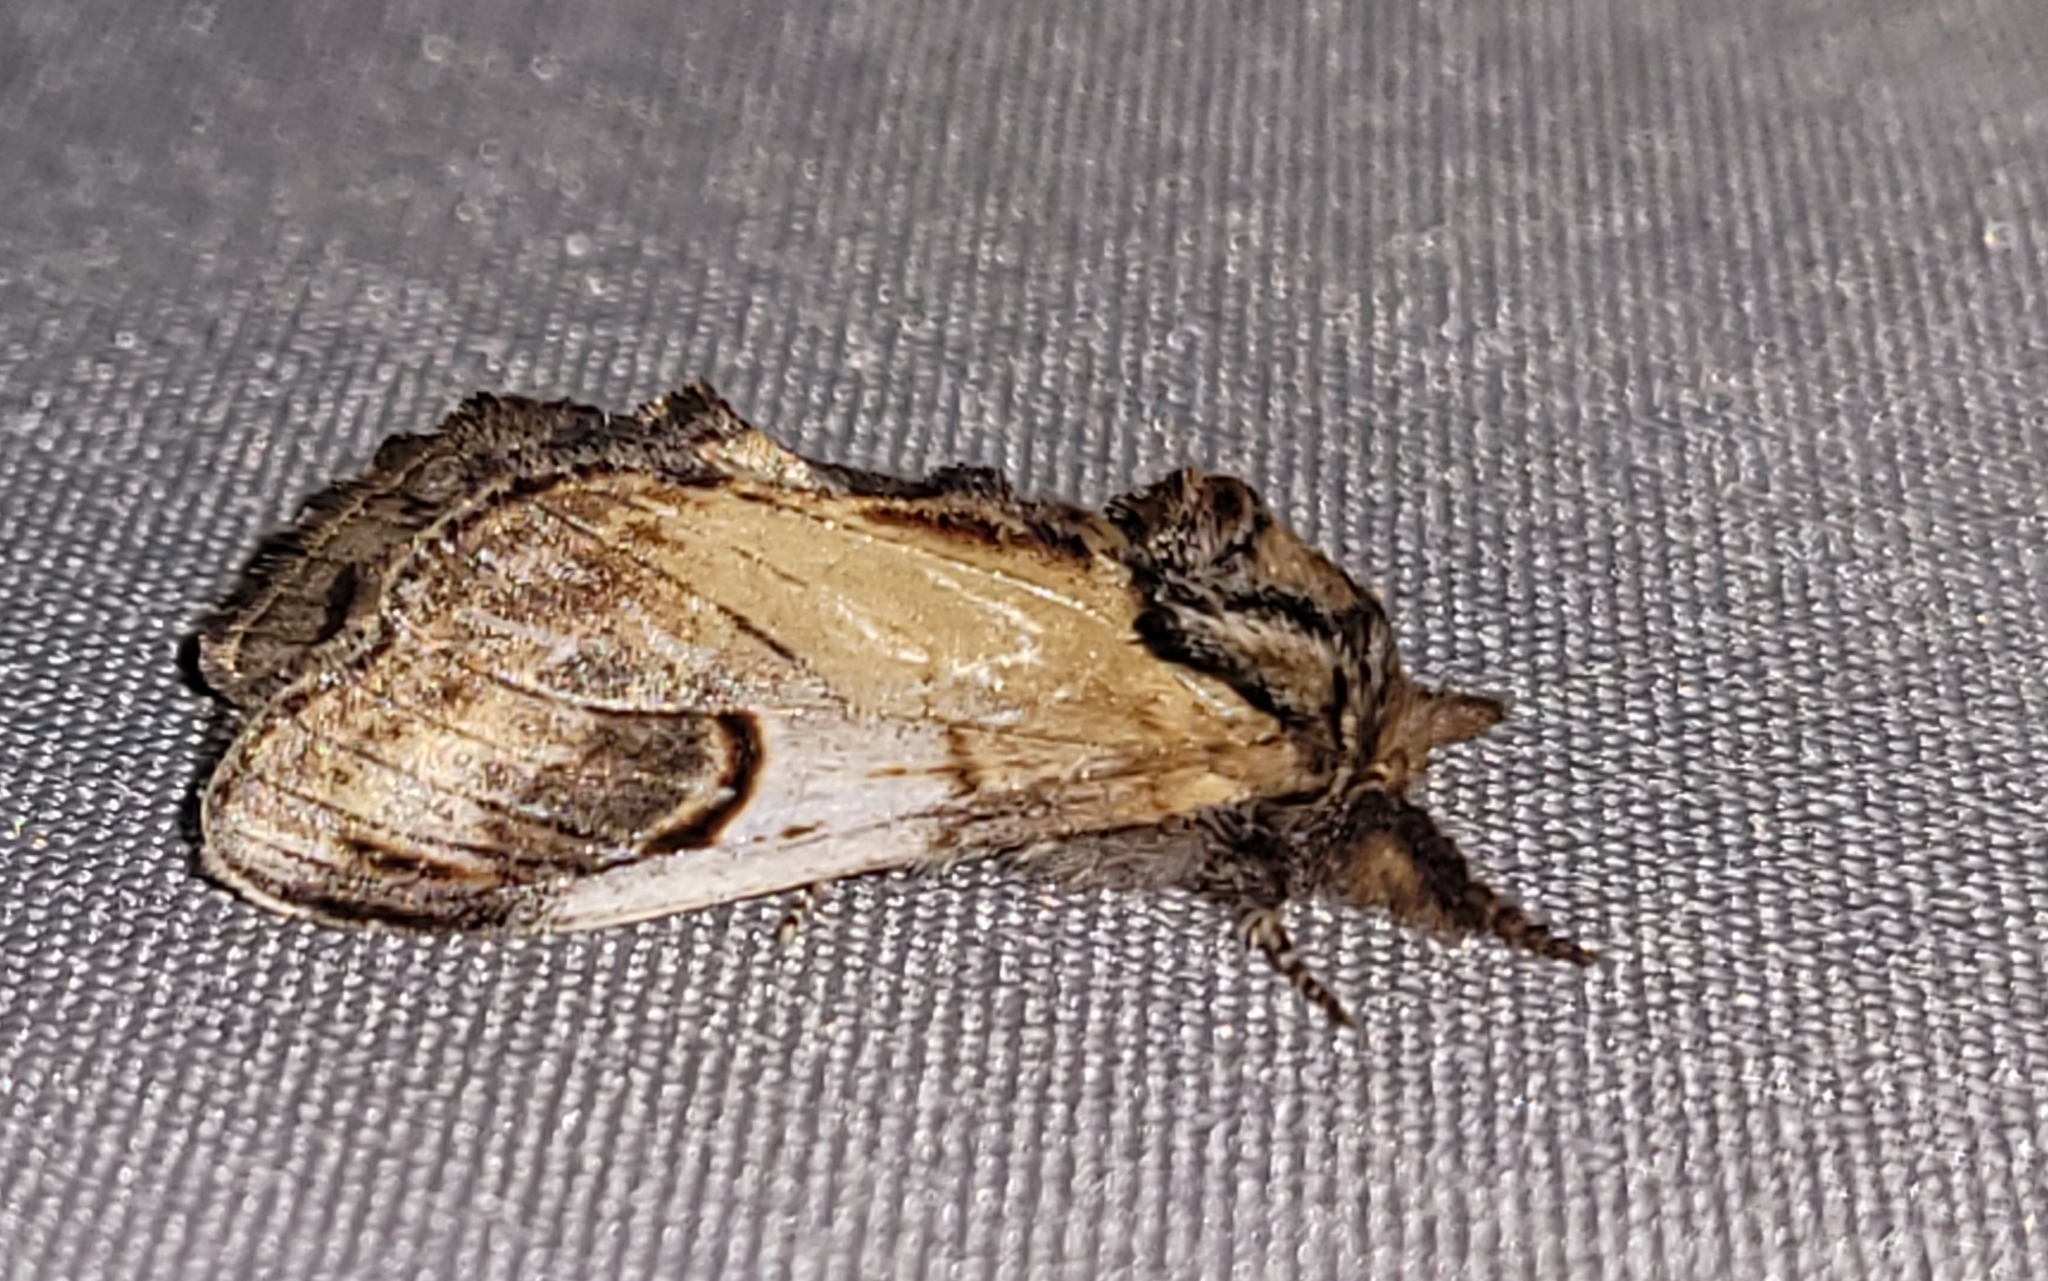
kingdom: Animalia
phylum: Arthropoda
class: Insecta
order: Lepidoptera
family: Notodontidae
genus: Notodonta
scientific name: Notodonta ziczac
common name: Pebble prominent
